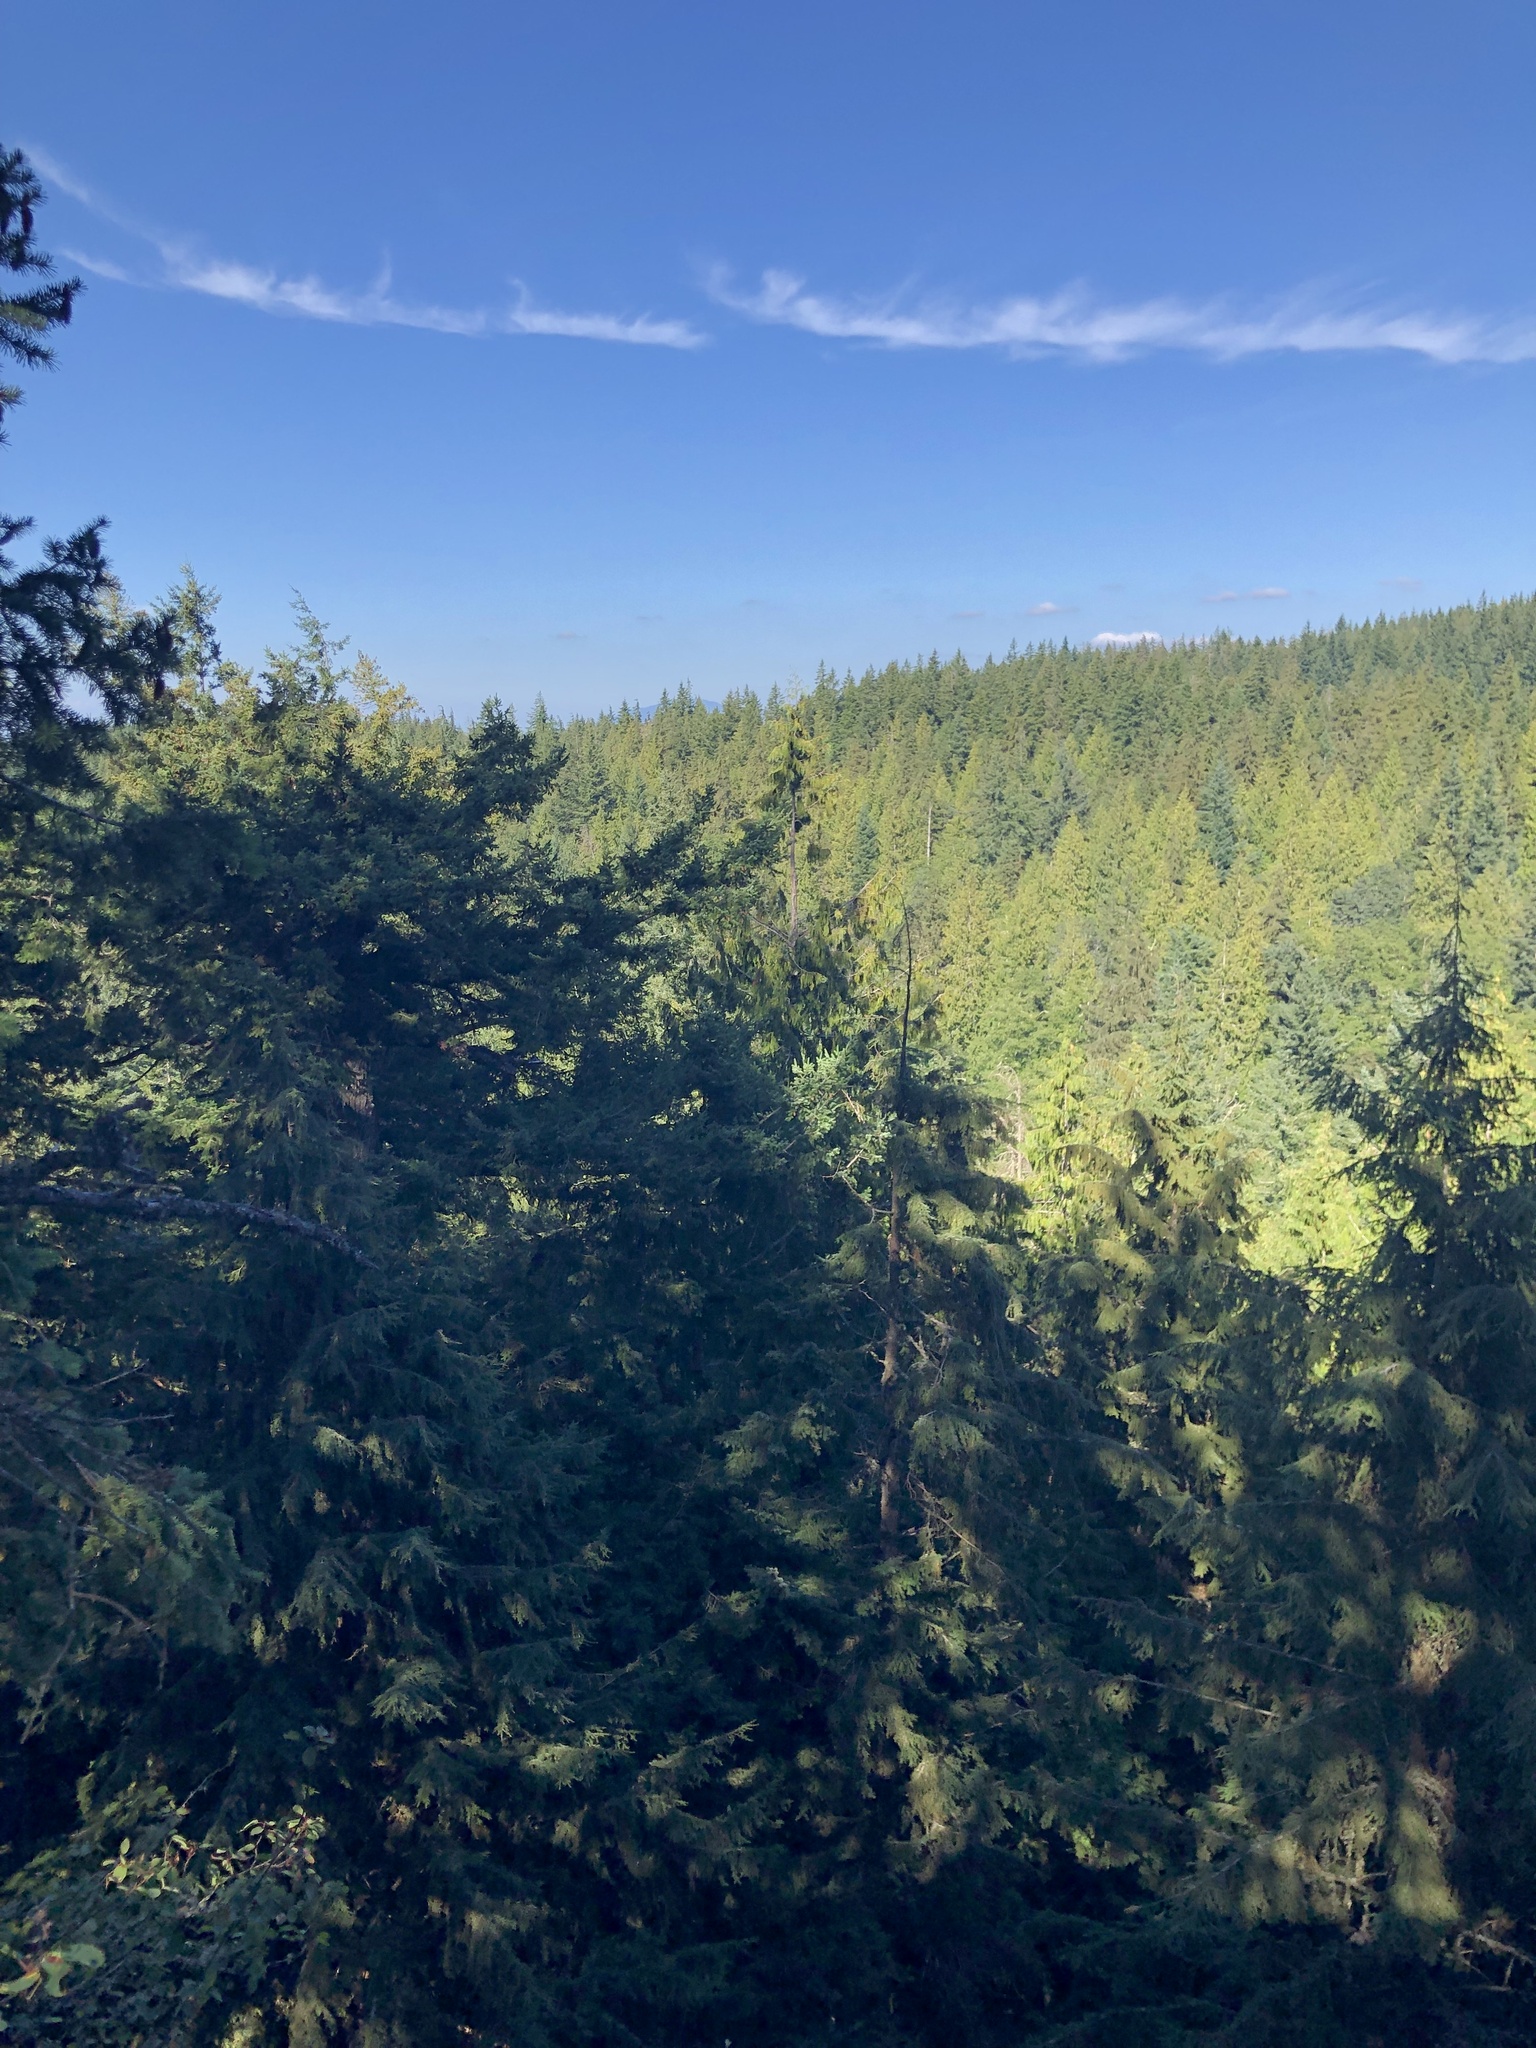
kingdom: Plantae
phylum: Tracheophyta
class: Pinopsida
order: Pinales
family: Cupressaceae
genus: Thuja
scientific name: Thuja plicata
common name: Western red-cedar
